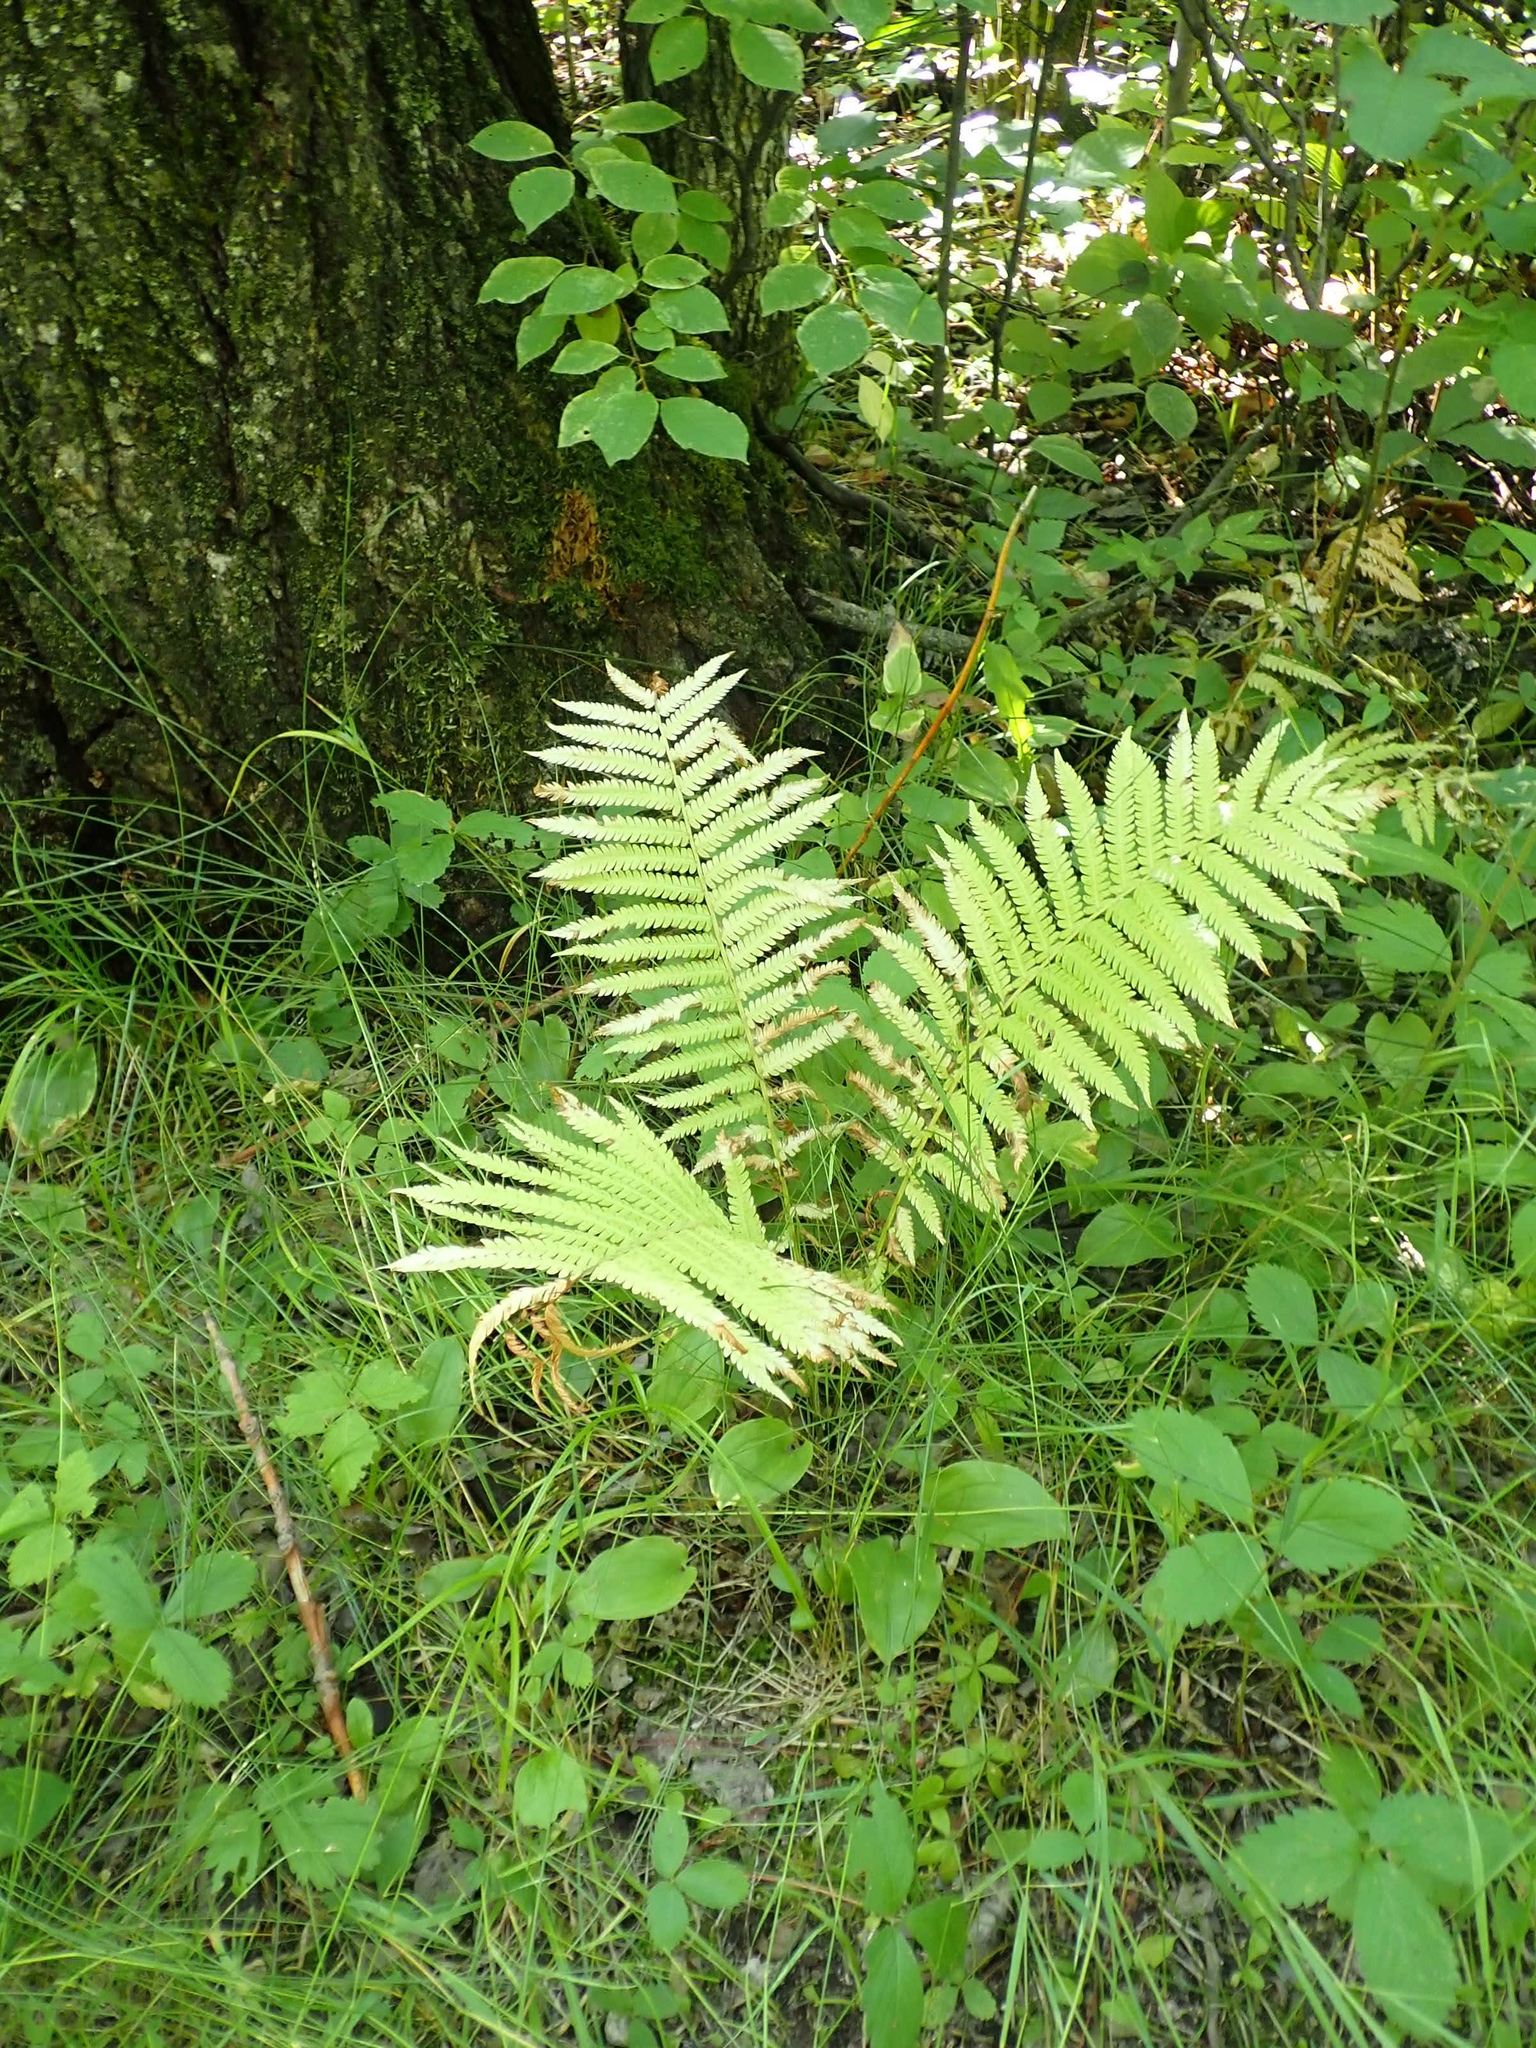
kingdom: Plantae
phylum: Tracheophyta
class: Polypodiopsida
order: Polypodiales
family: Onocleaceae
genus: Matteuccia
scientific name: Matteuccia struthiopteris
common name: Ostrich fern
